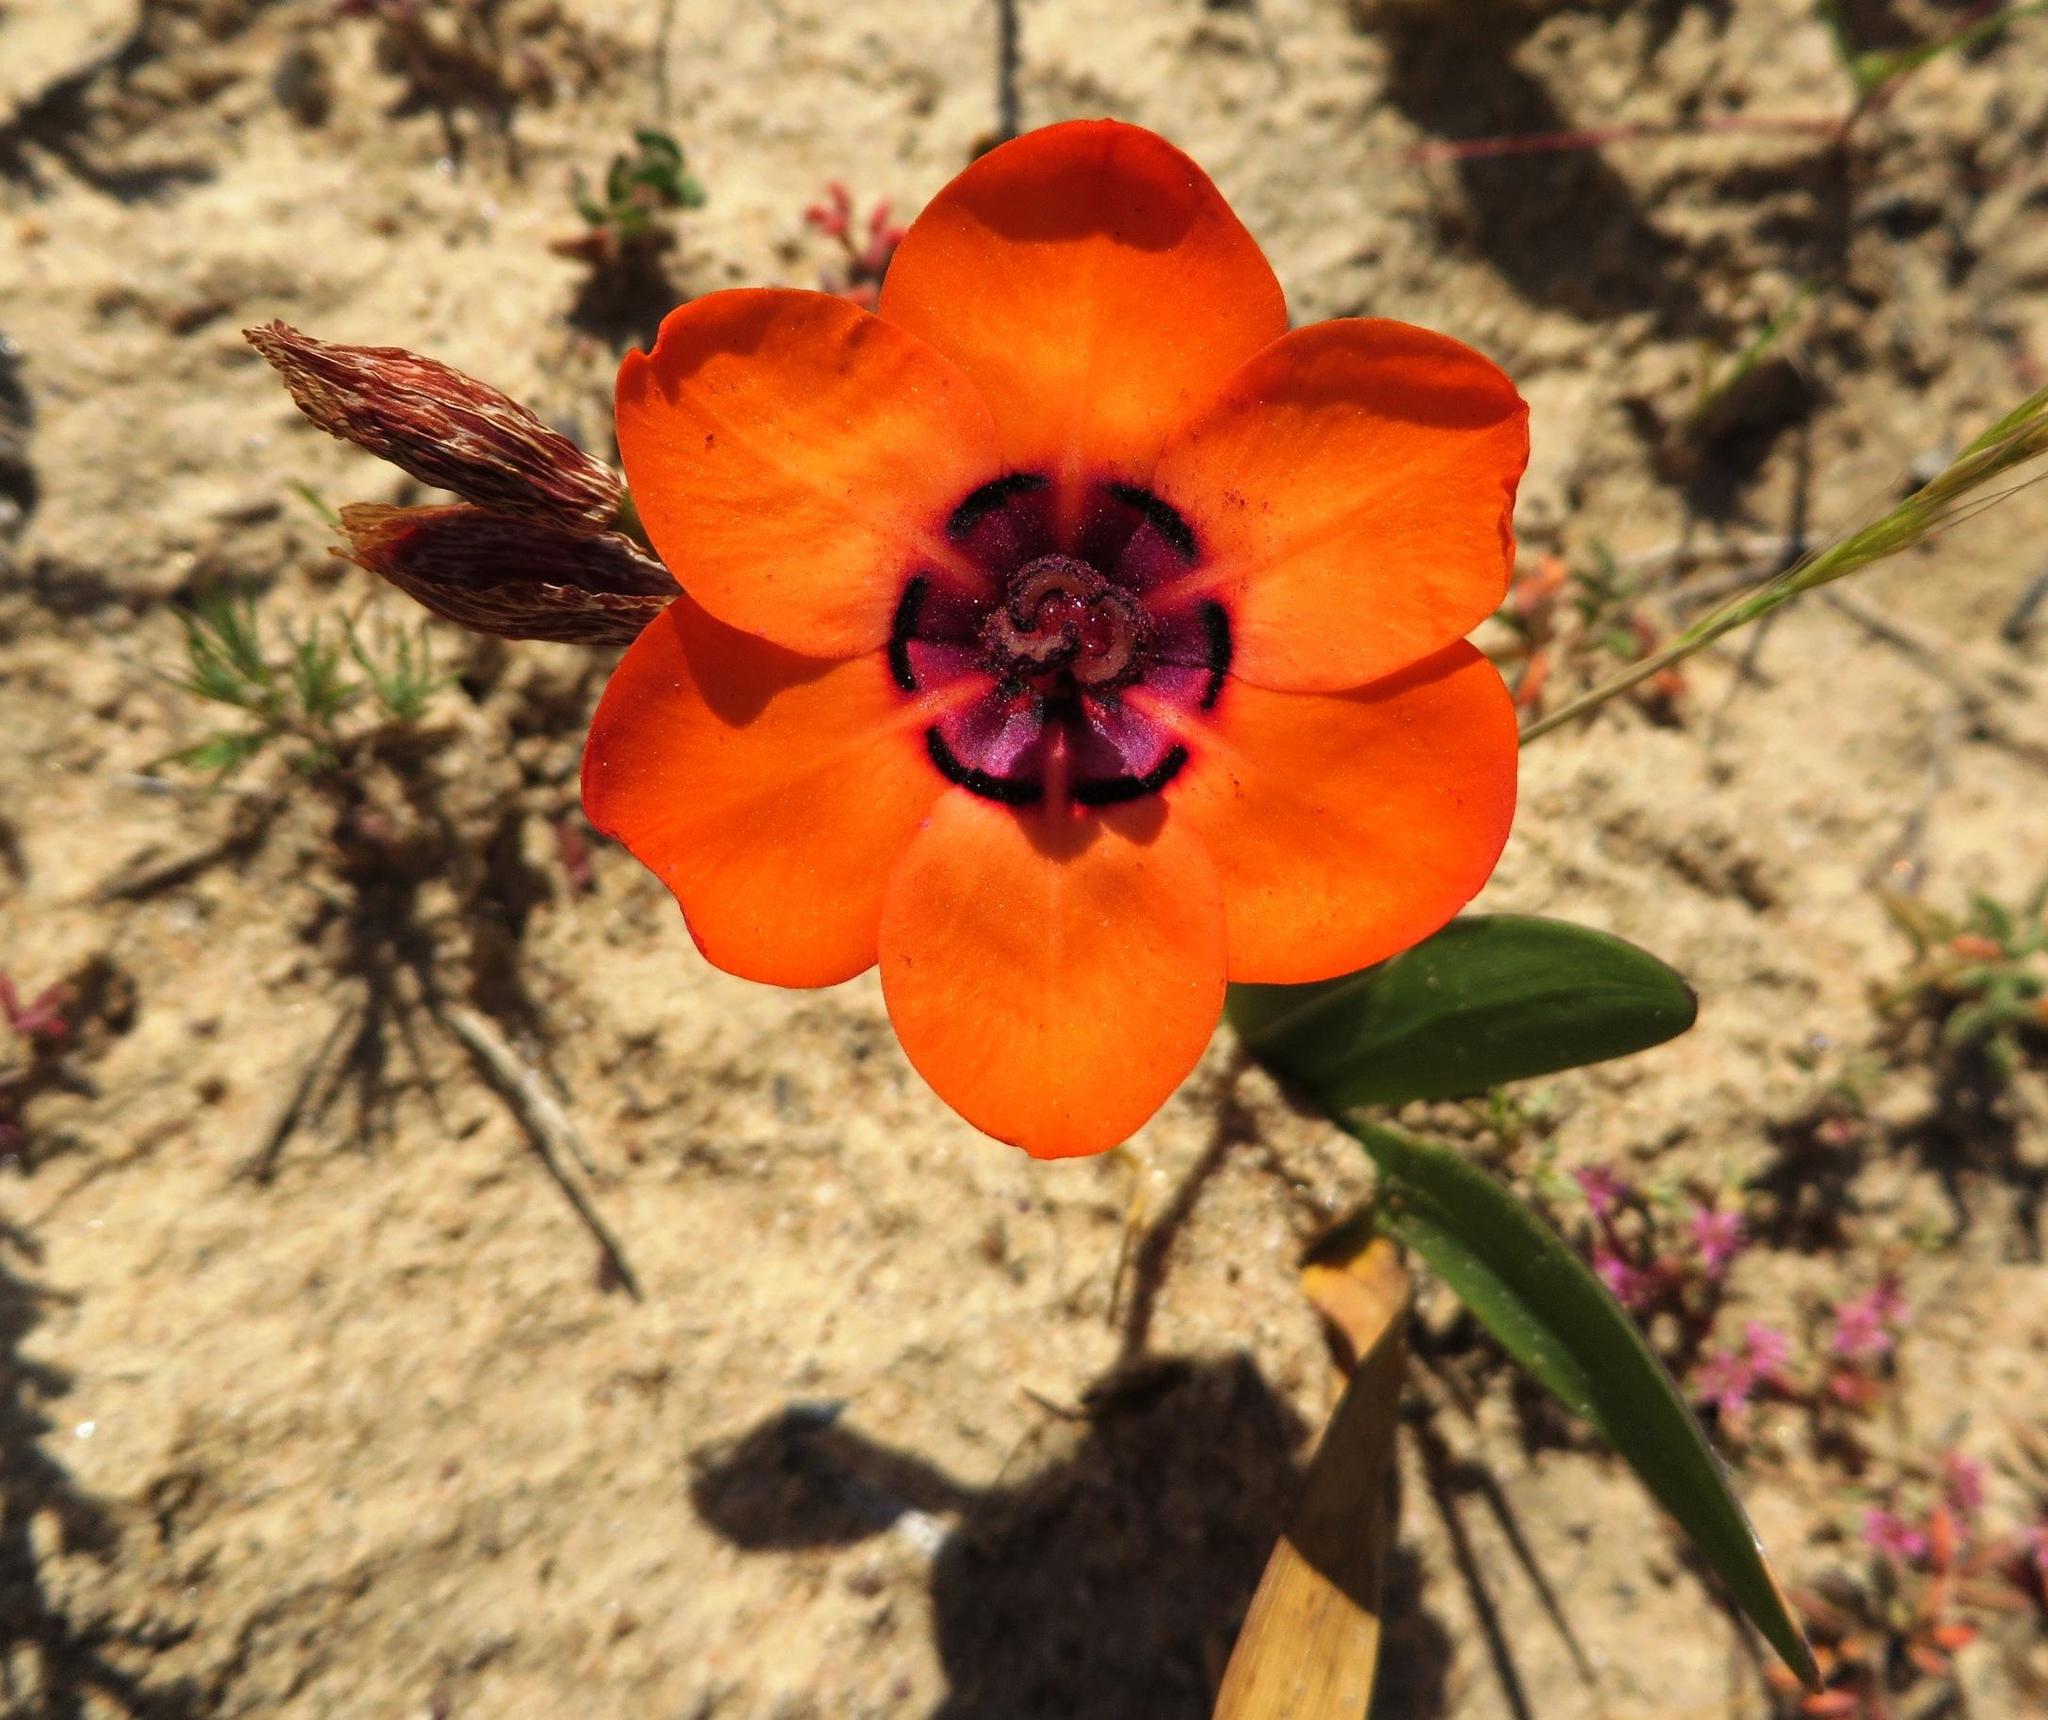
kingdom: Plantae
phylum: Tracheophyta
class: Liliopsida
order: Asparagales
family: Iridaceae
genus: Sparaxis
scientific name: Sparaxis elegans
